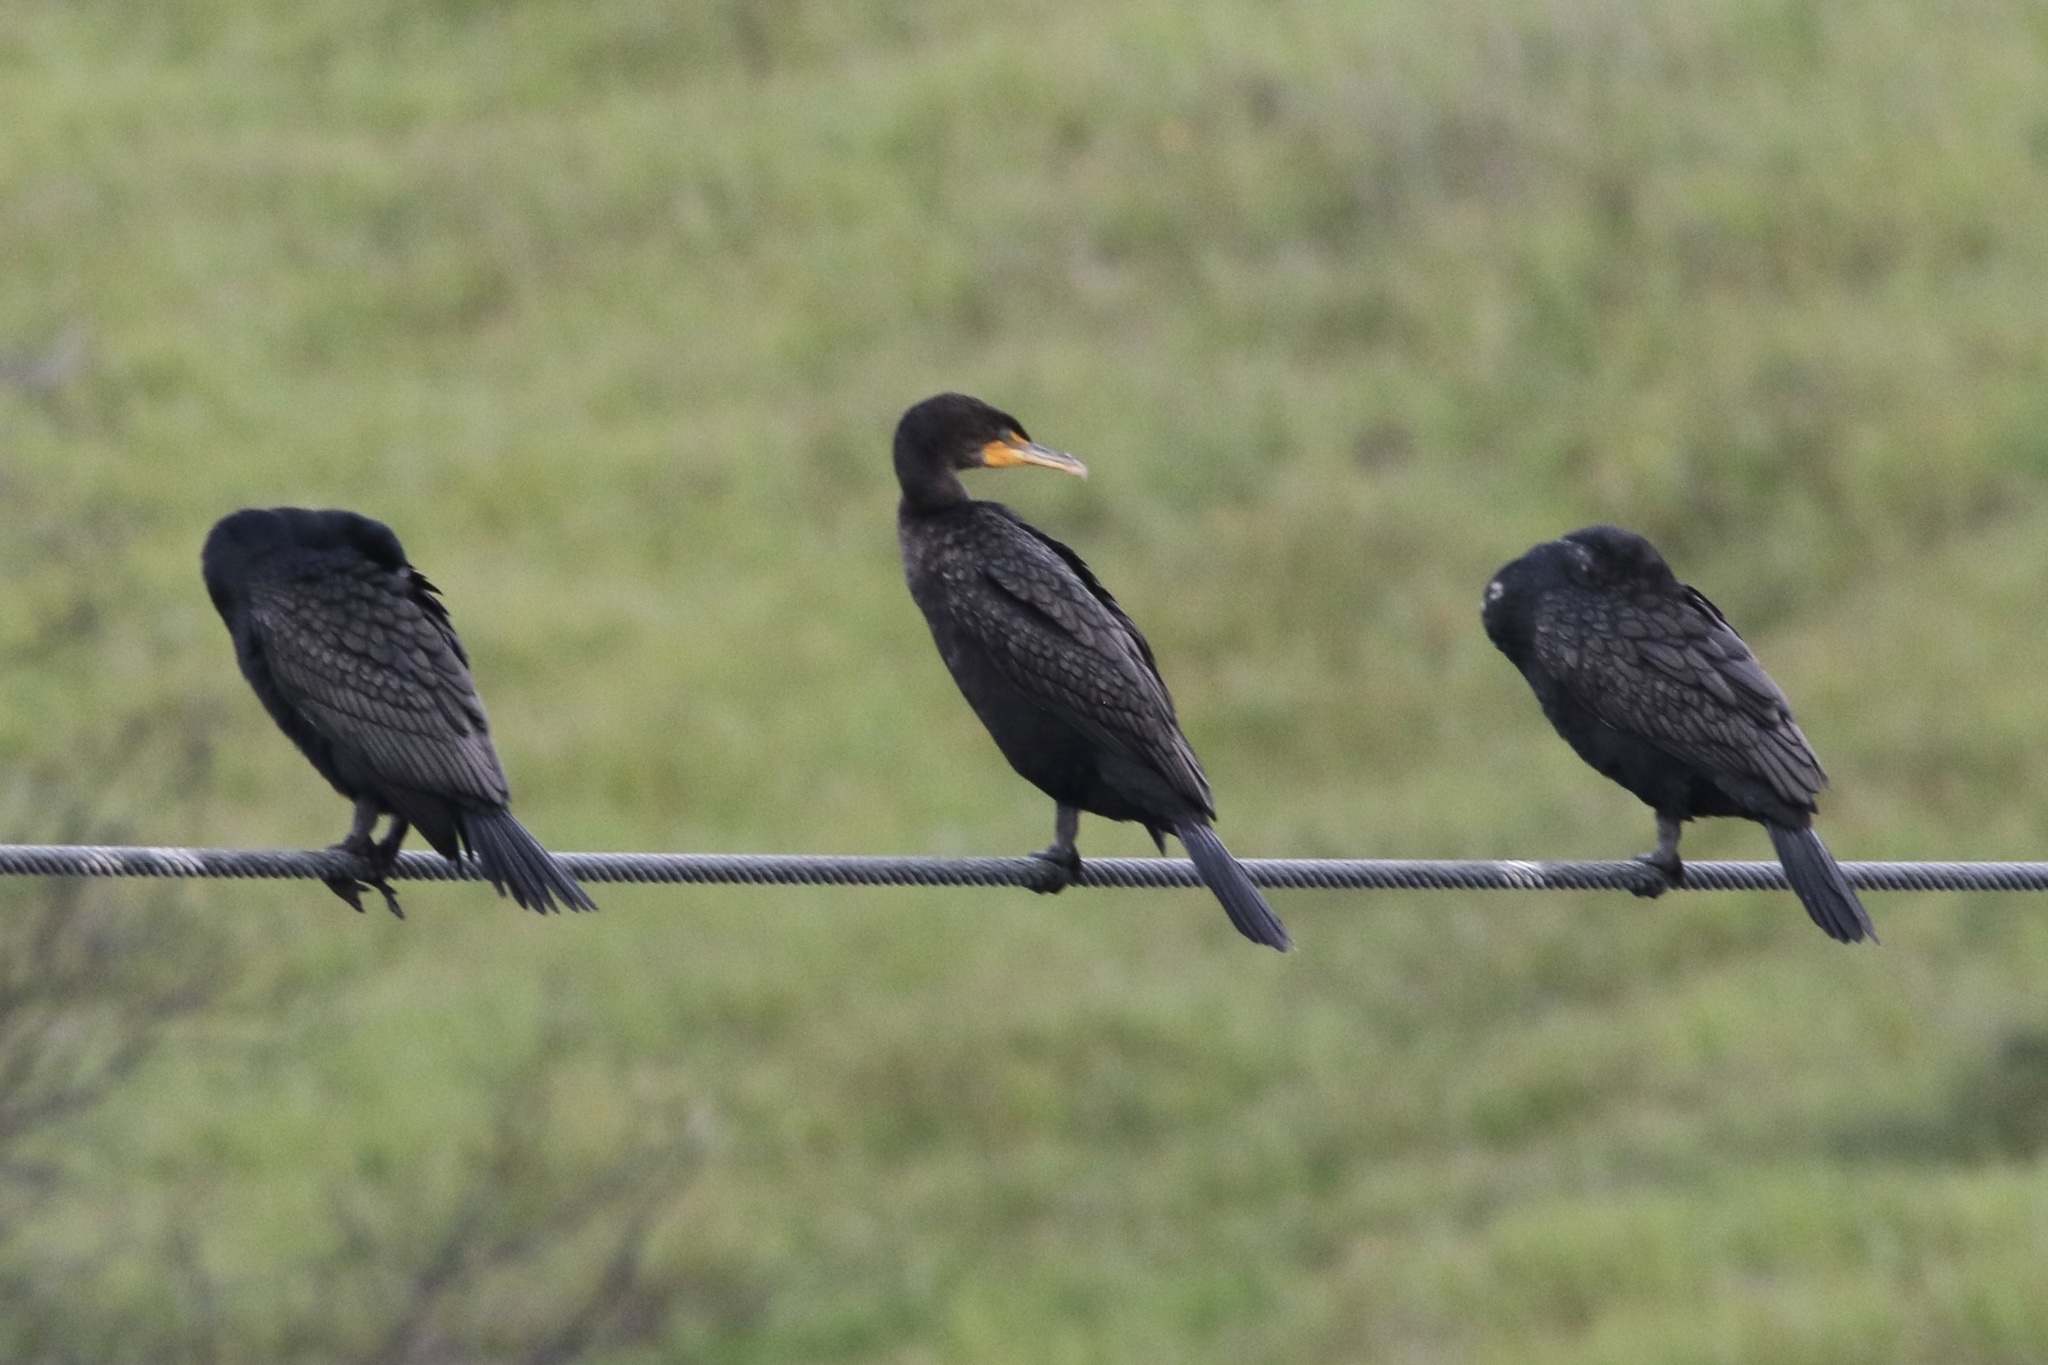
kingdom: Animalia
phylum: Chordata
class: Aves
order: Suliformes
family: Phalacrocoracidae
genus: Phalacrocorax
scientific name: Phalacrocorax auritus
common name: Double-crested cormorant
